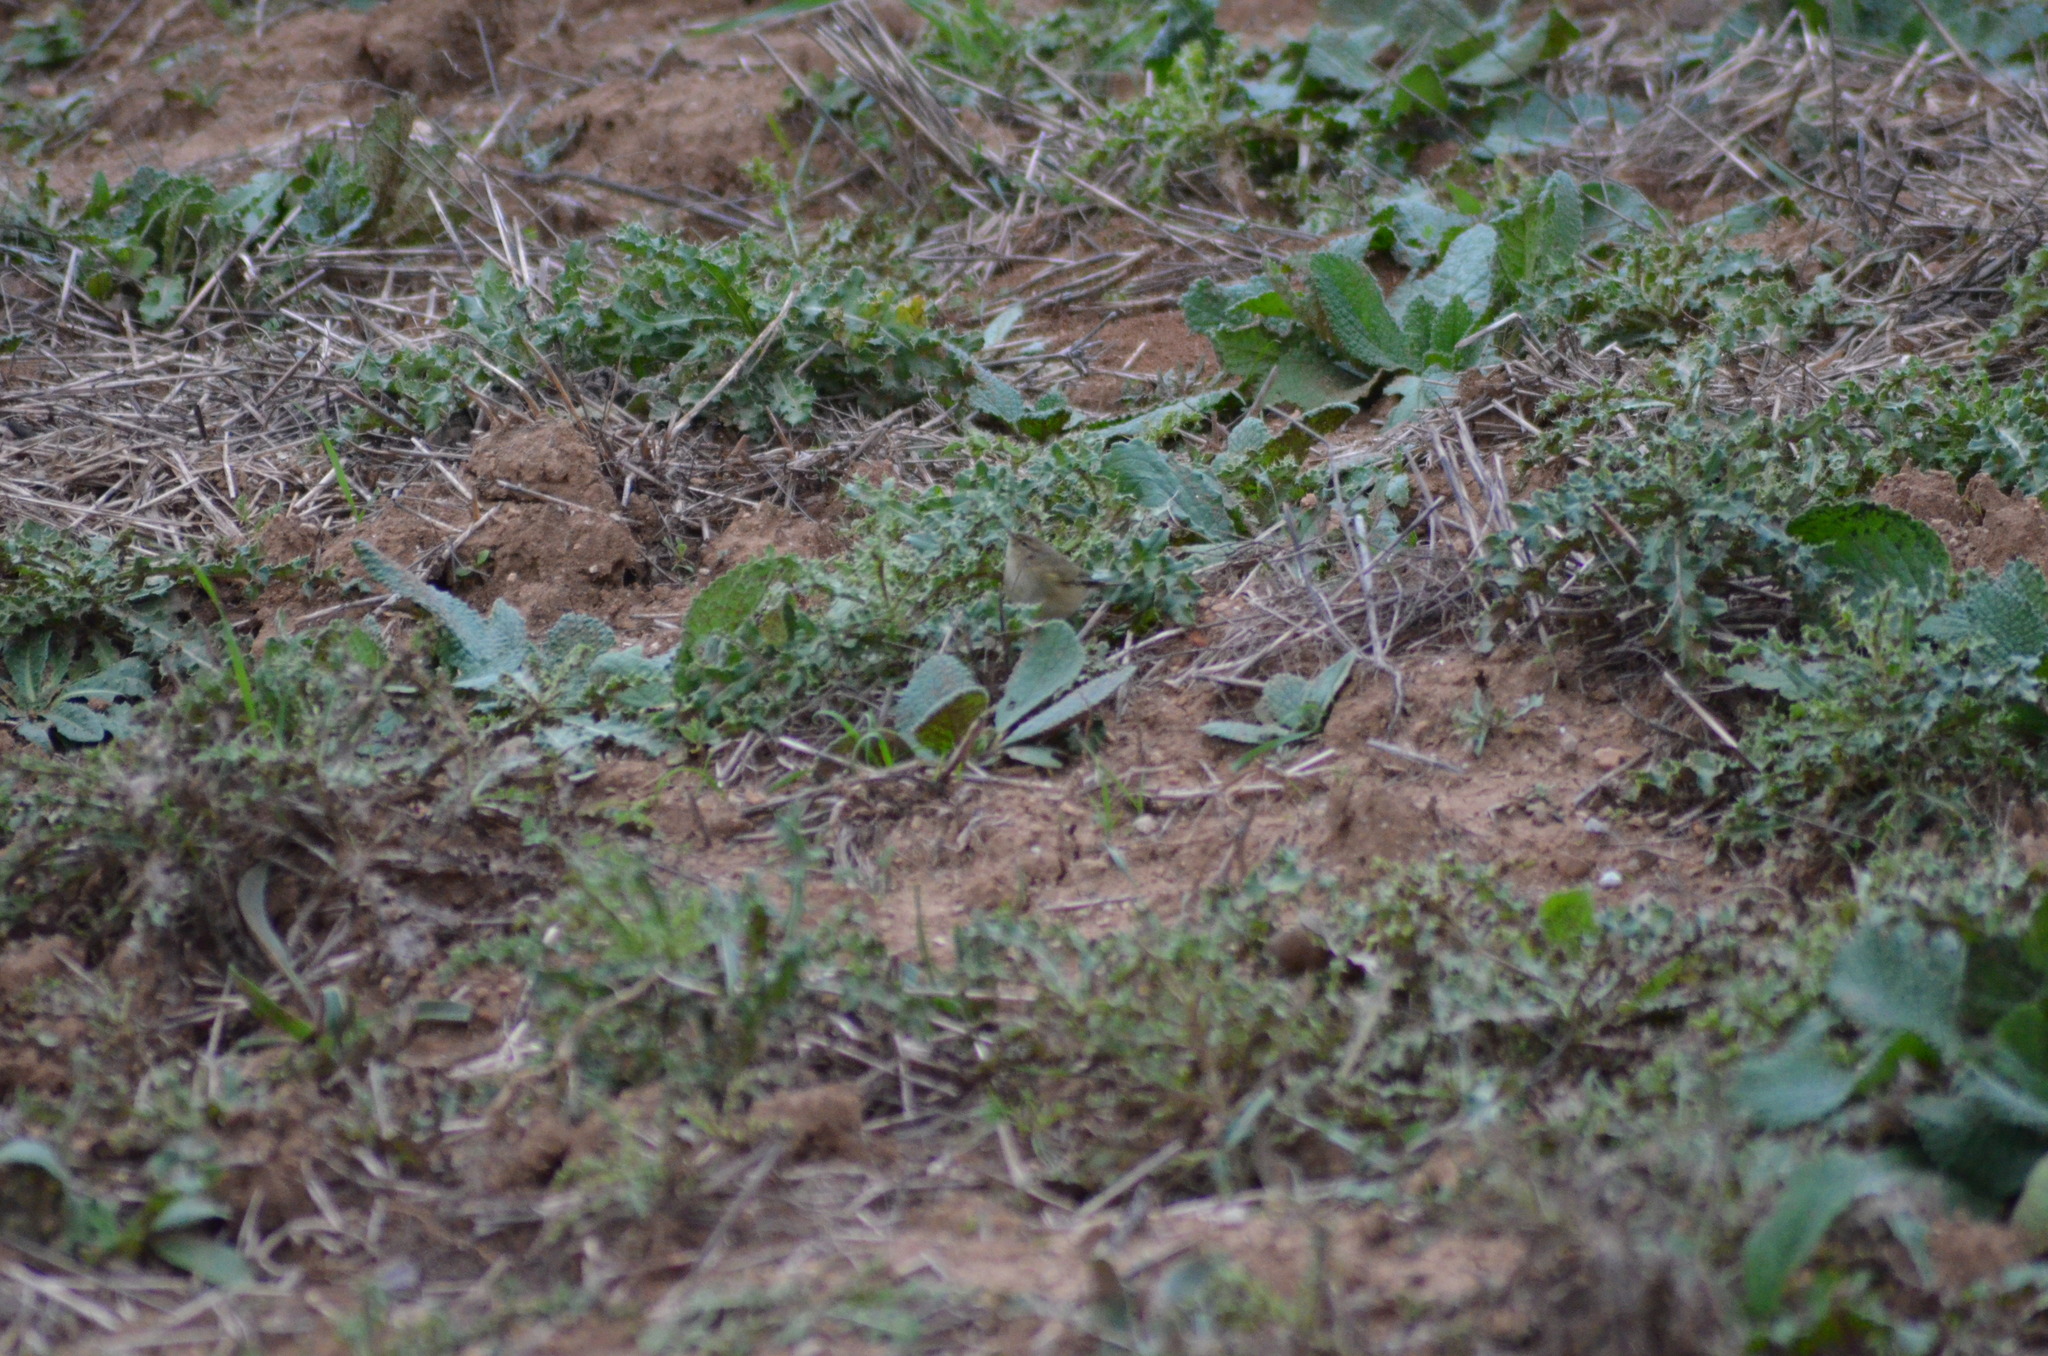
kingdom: Animalia
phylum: Chordata
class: Aves
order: Passeriformes
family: Phylloscopidae
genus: Phylloscopus
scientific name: Phylloscopus collybita
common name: Common chiffchaff
